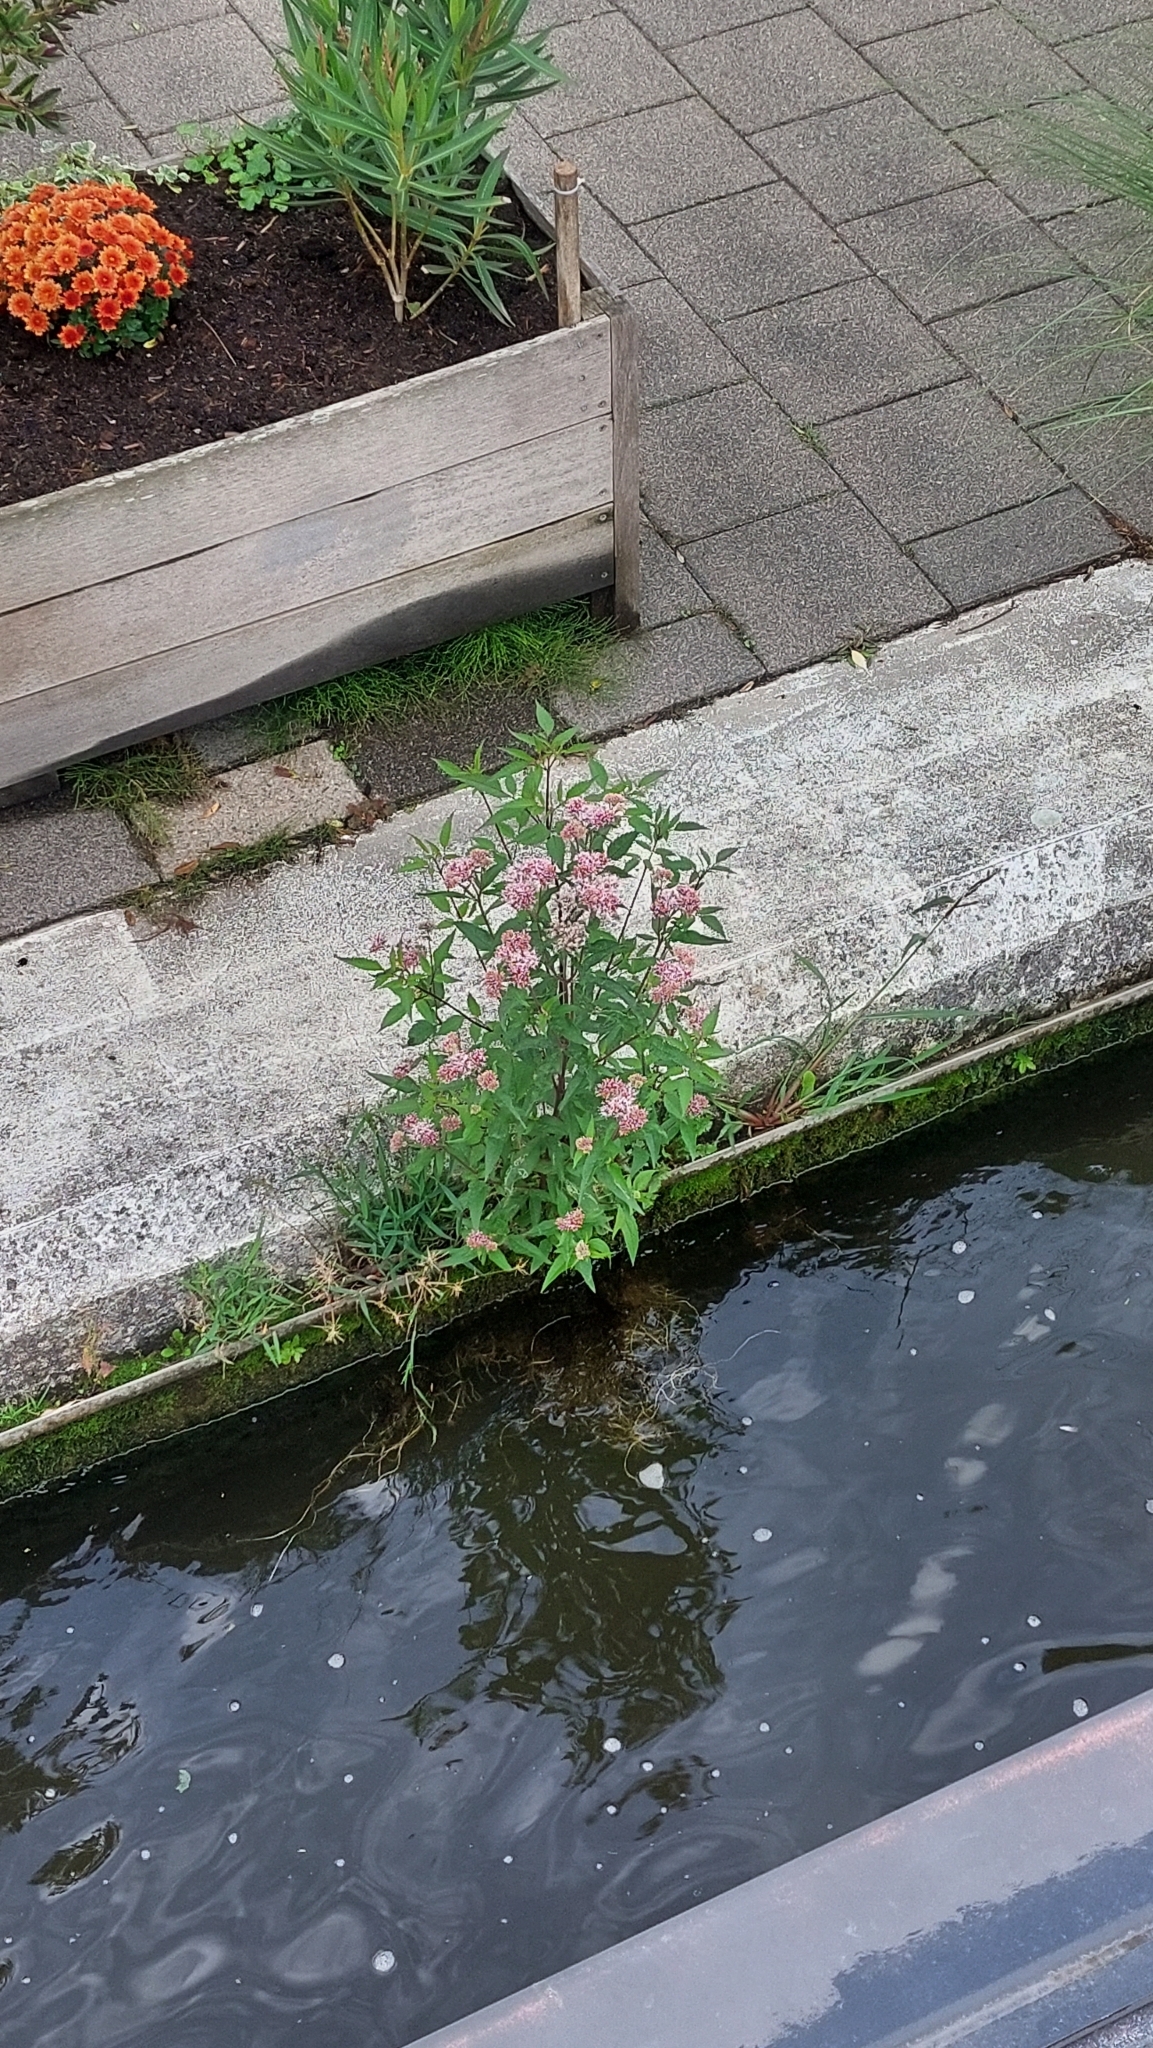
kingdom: Plantae
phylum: Tracheophyta
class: Magnoliopsida
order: Asterales
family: Asteraceae
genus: Eupatorium
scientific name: Eupatorium cannabinum
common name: Hemp-agrimony
